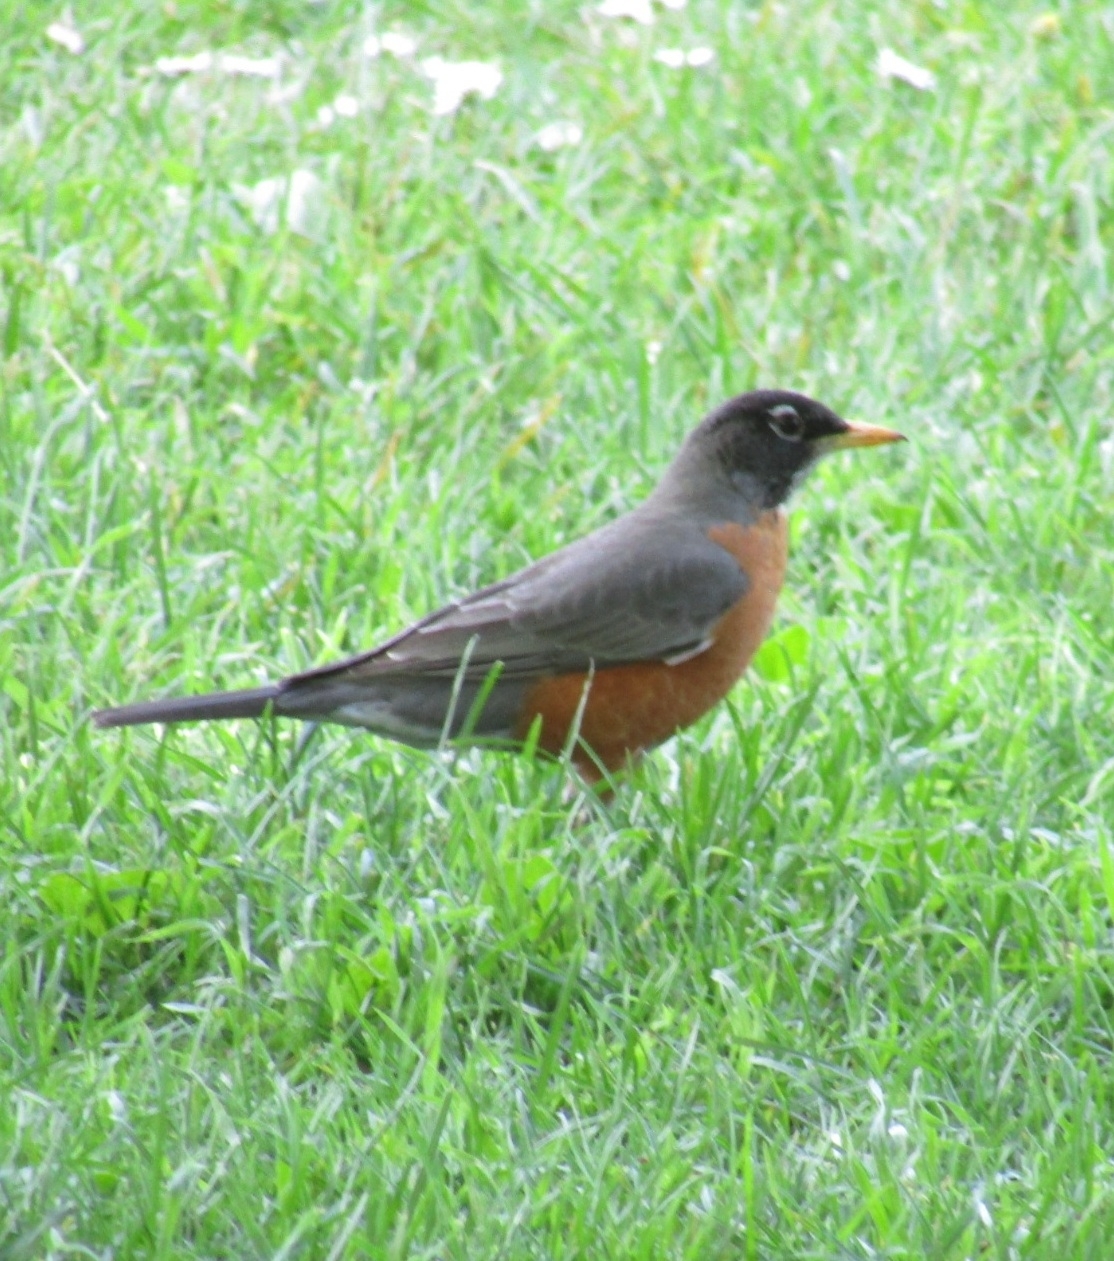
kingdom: Animalia
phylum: Chordata
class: Aves
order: Passeriformes
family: Turdidae
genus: Turdus
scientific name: Turdus migratorius
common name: American robin
